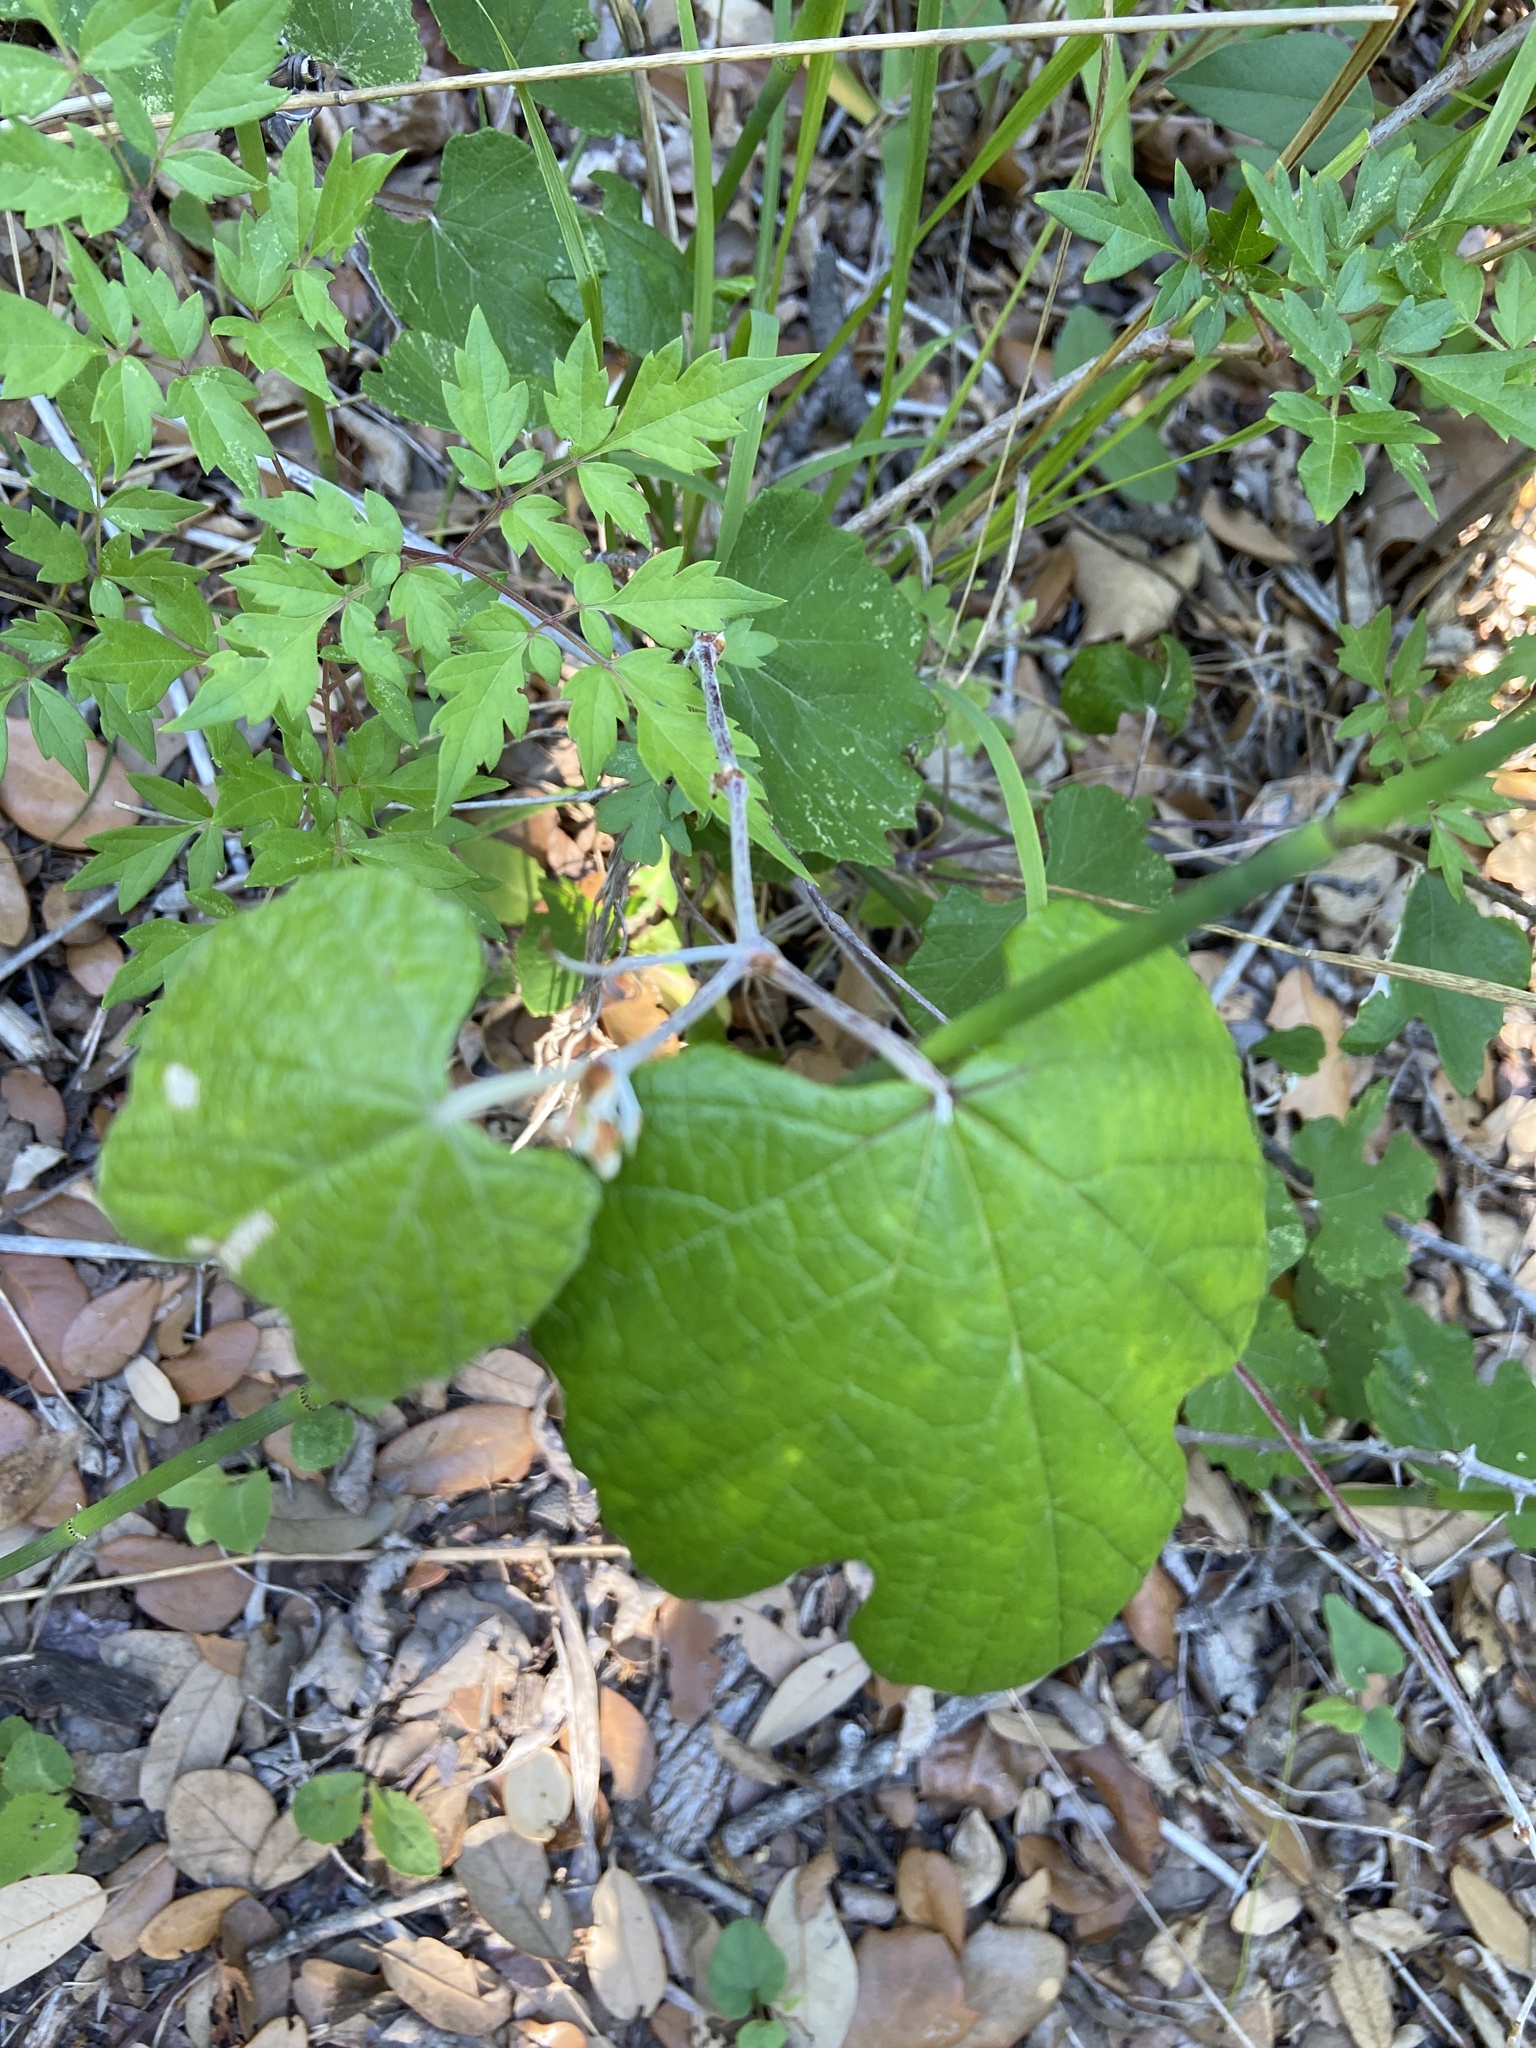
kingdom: Plantae
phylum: Tracheophyta
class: Magnoliopsida
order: Vitales
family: Vitaceae
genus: Vitis
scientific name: Vitis mustangensis
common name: Mustang grape
